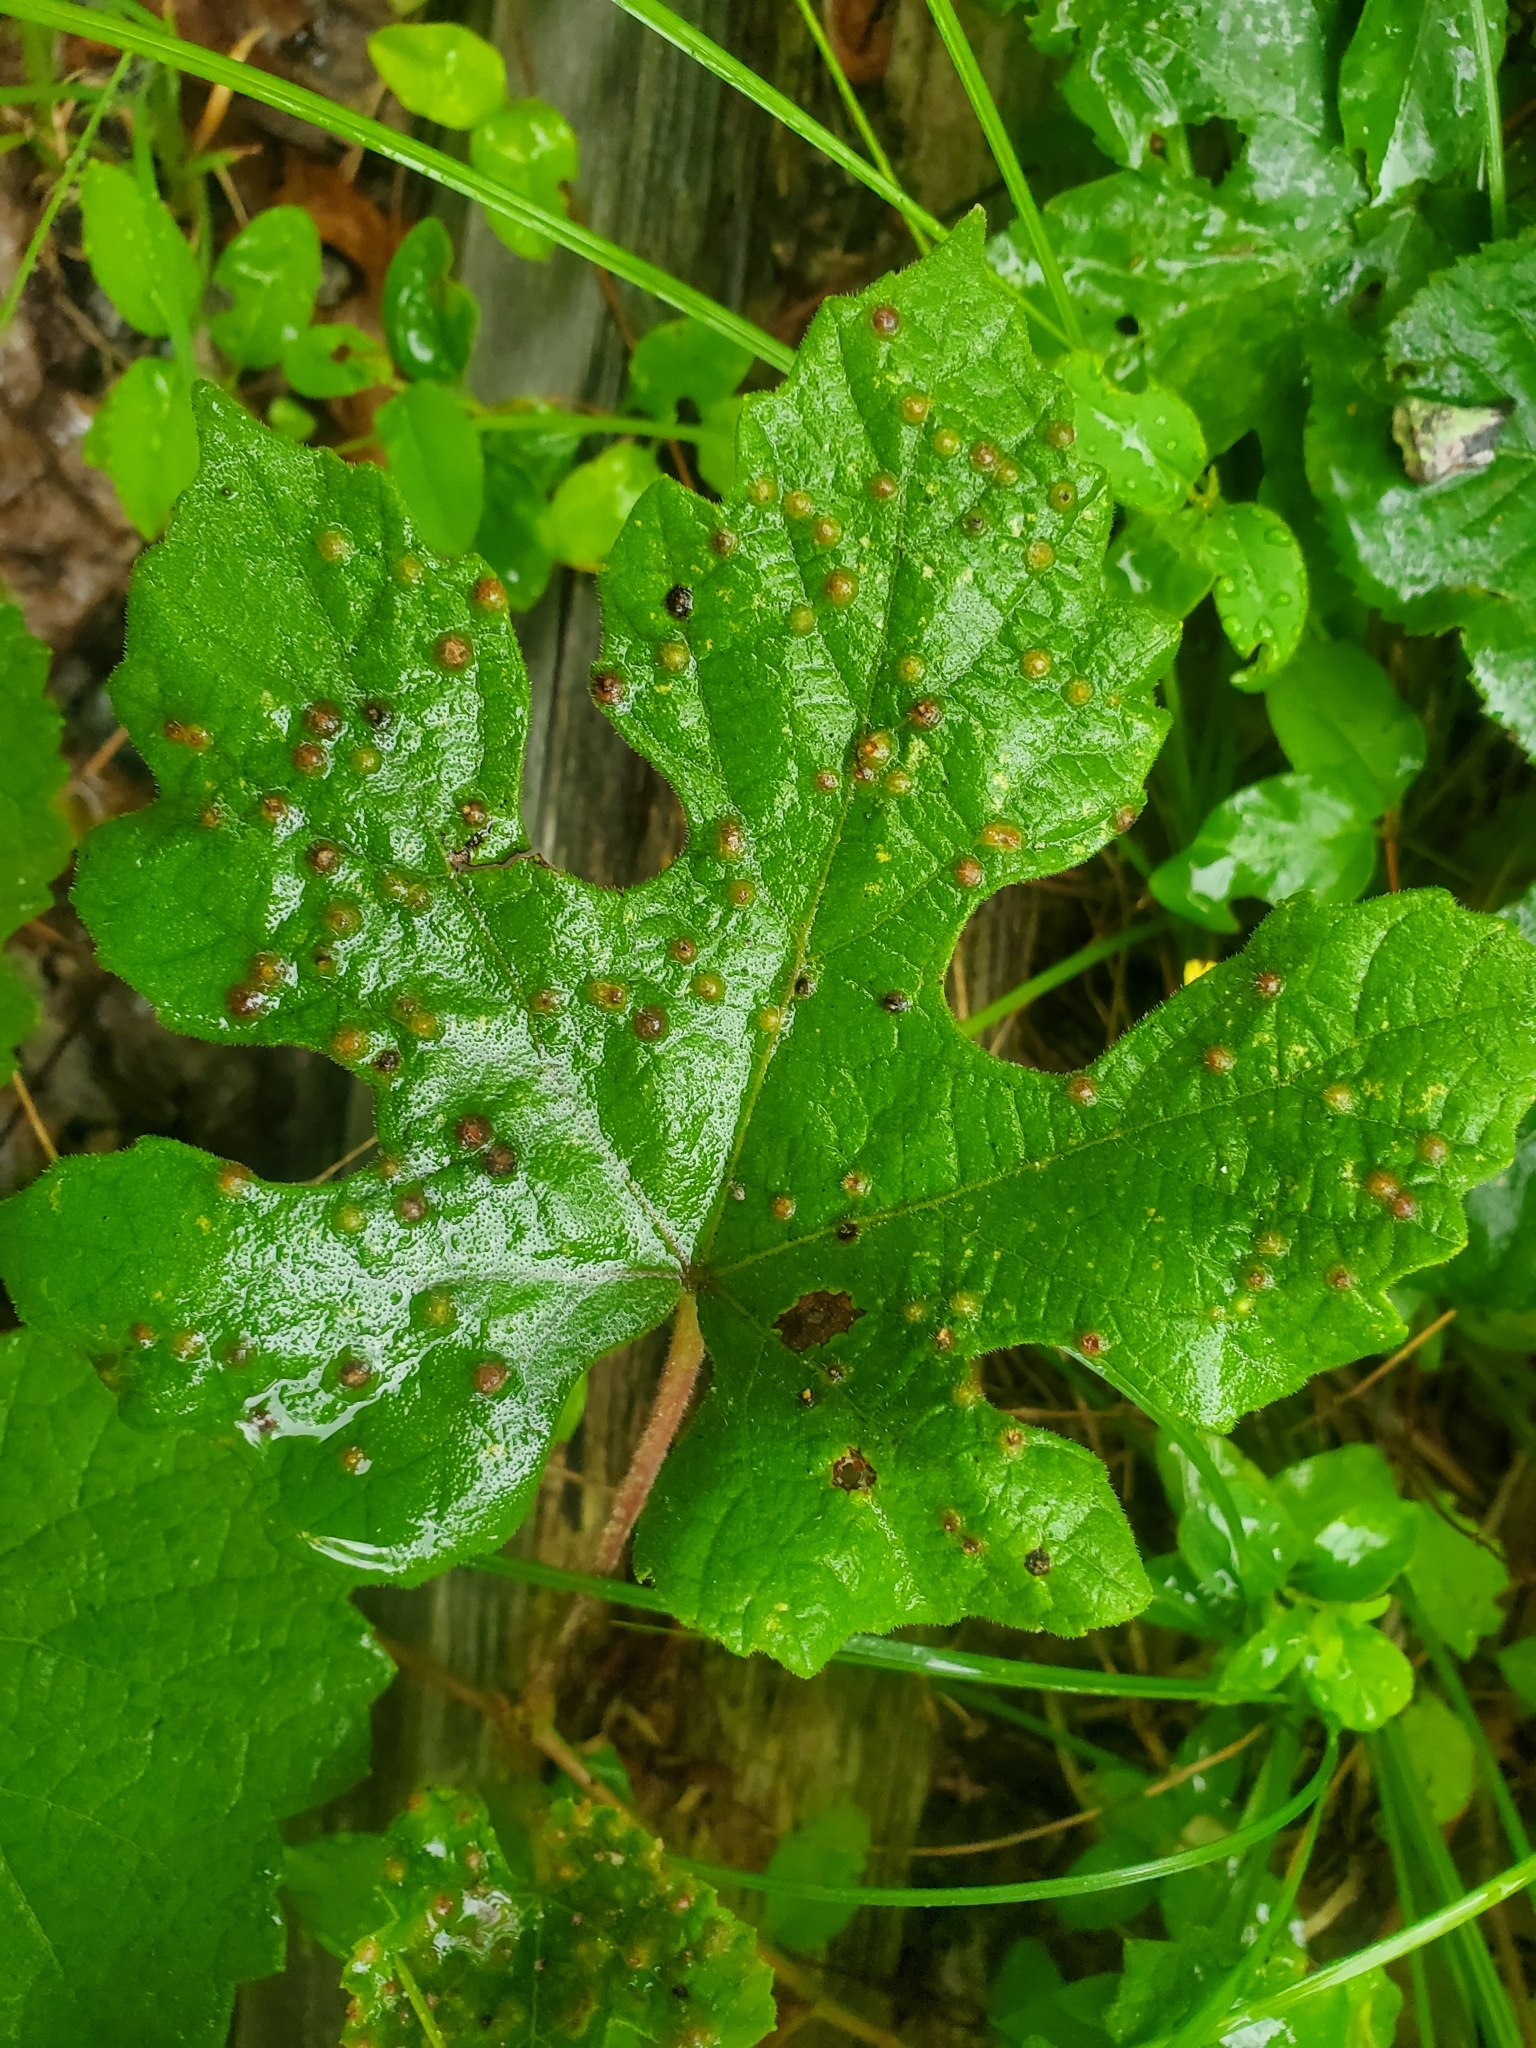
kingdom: Animalia
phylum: Arthropoda
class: Insecta
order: Diptera
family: Cecidomyiidae
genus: Vitisiella
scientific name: Vitisiella brevicauda
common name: Grape tumid gallmaker midge
